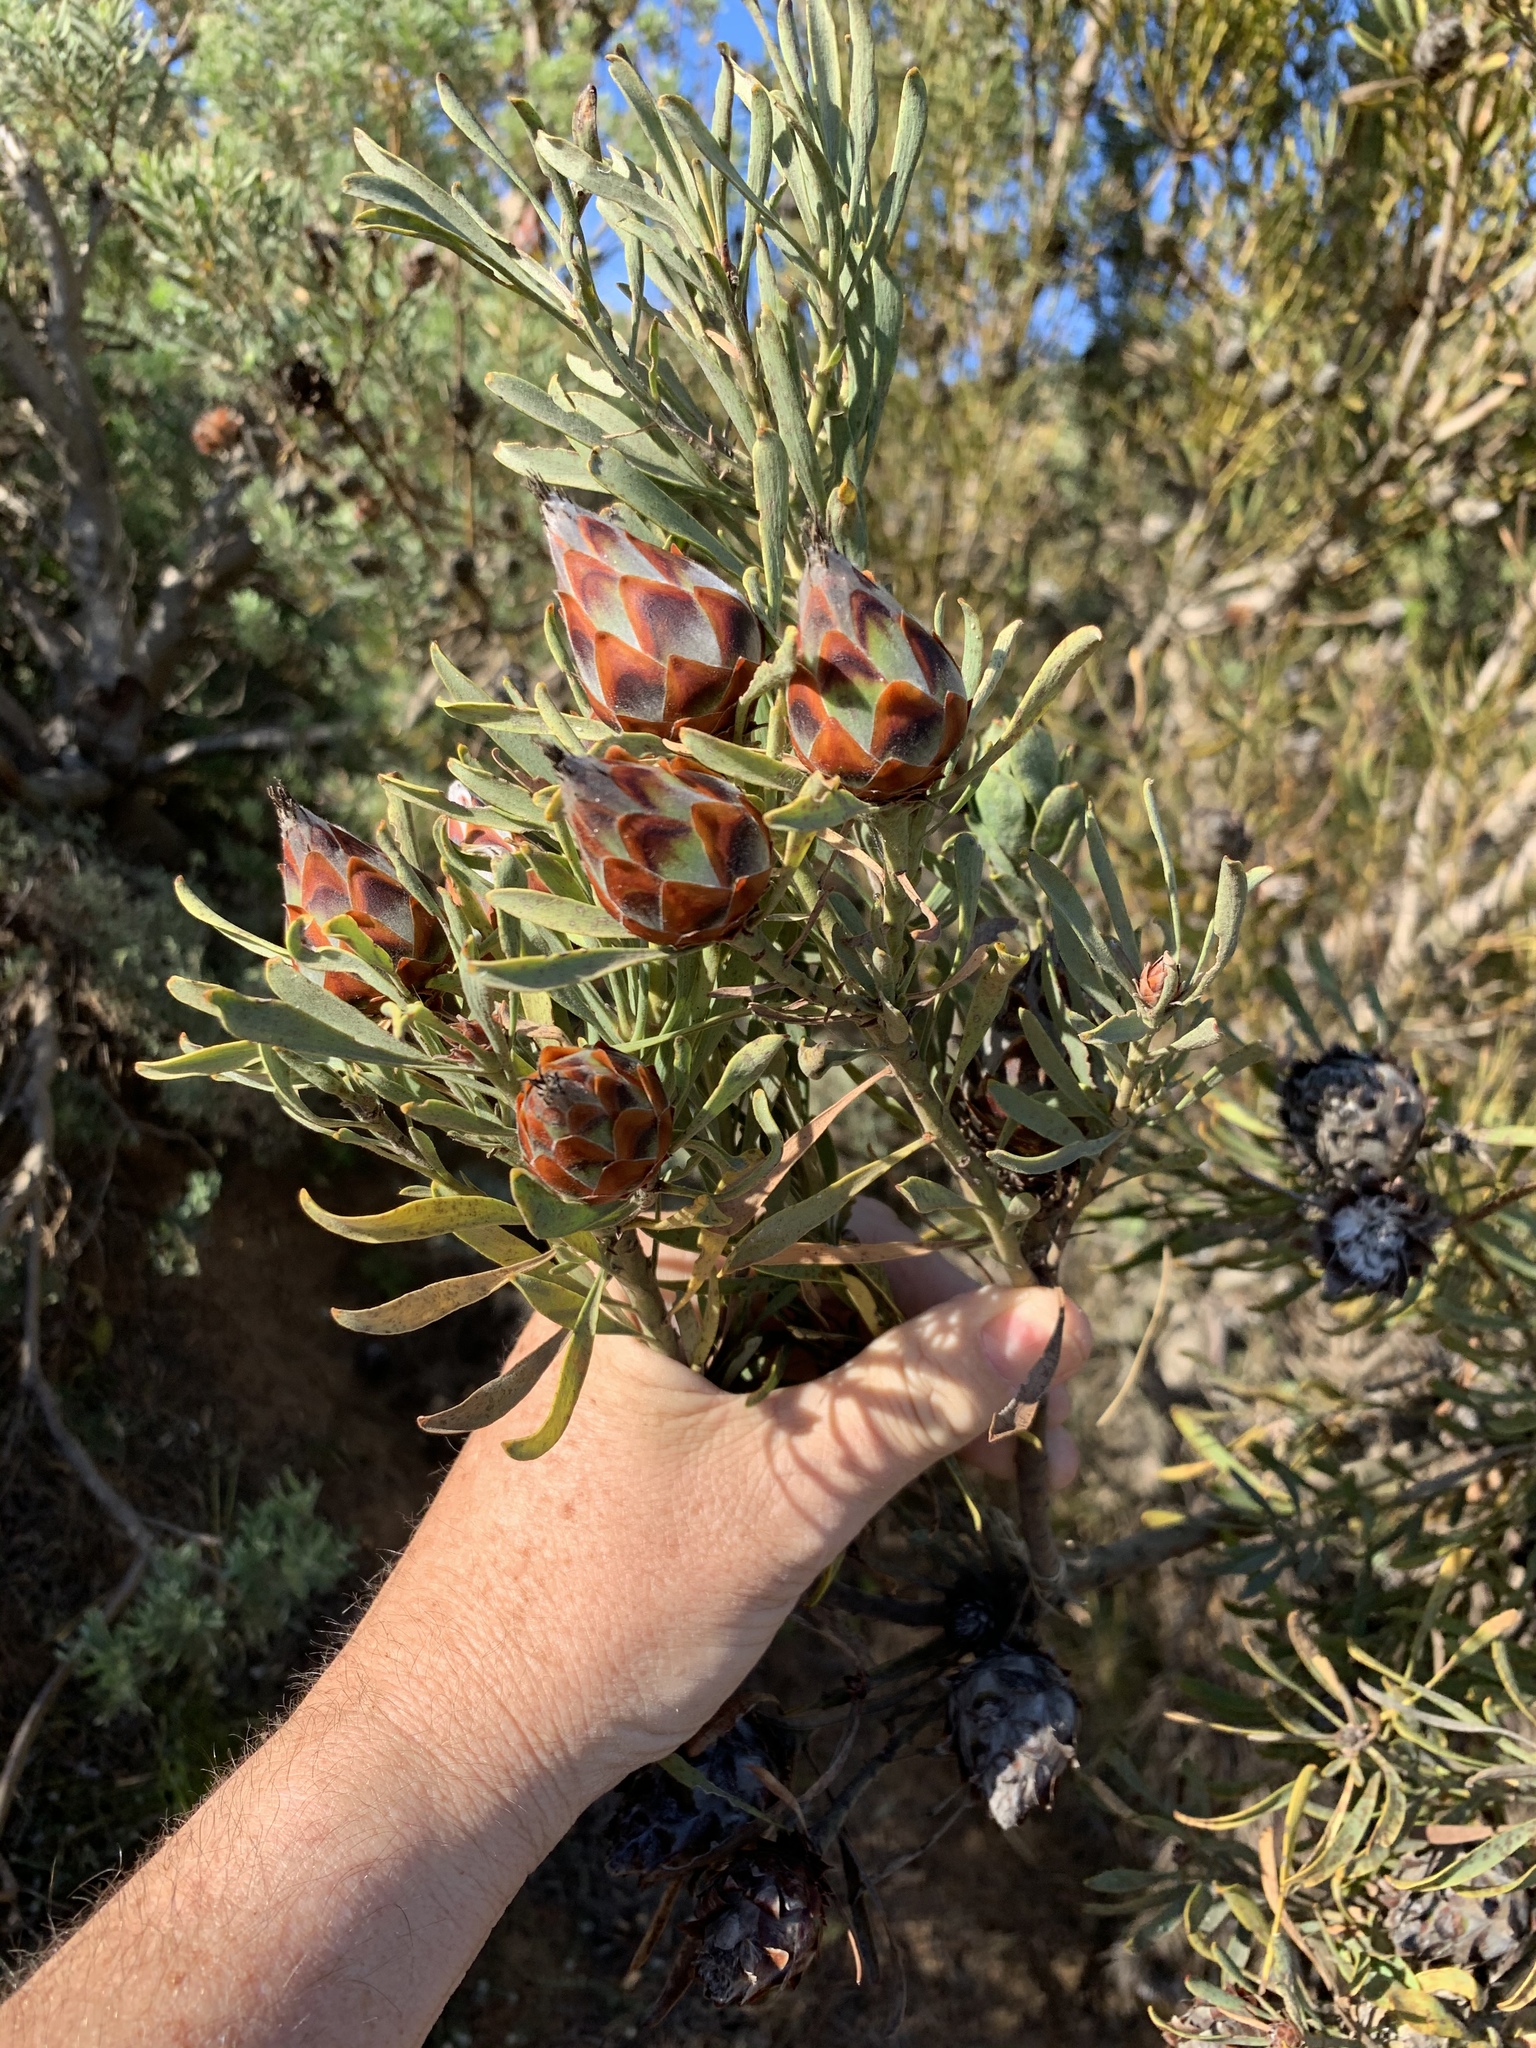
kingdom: Plantae
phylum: Tracheophyta
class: Magnoliopsida
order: Proteales
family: Proteaceae
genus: Leucadendron
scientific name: Leucadendron rubrum
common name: Spinning top
